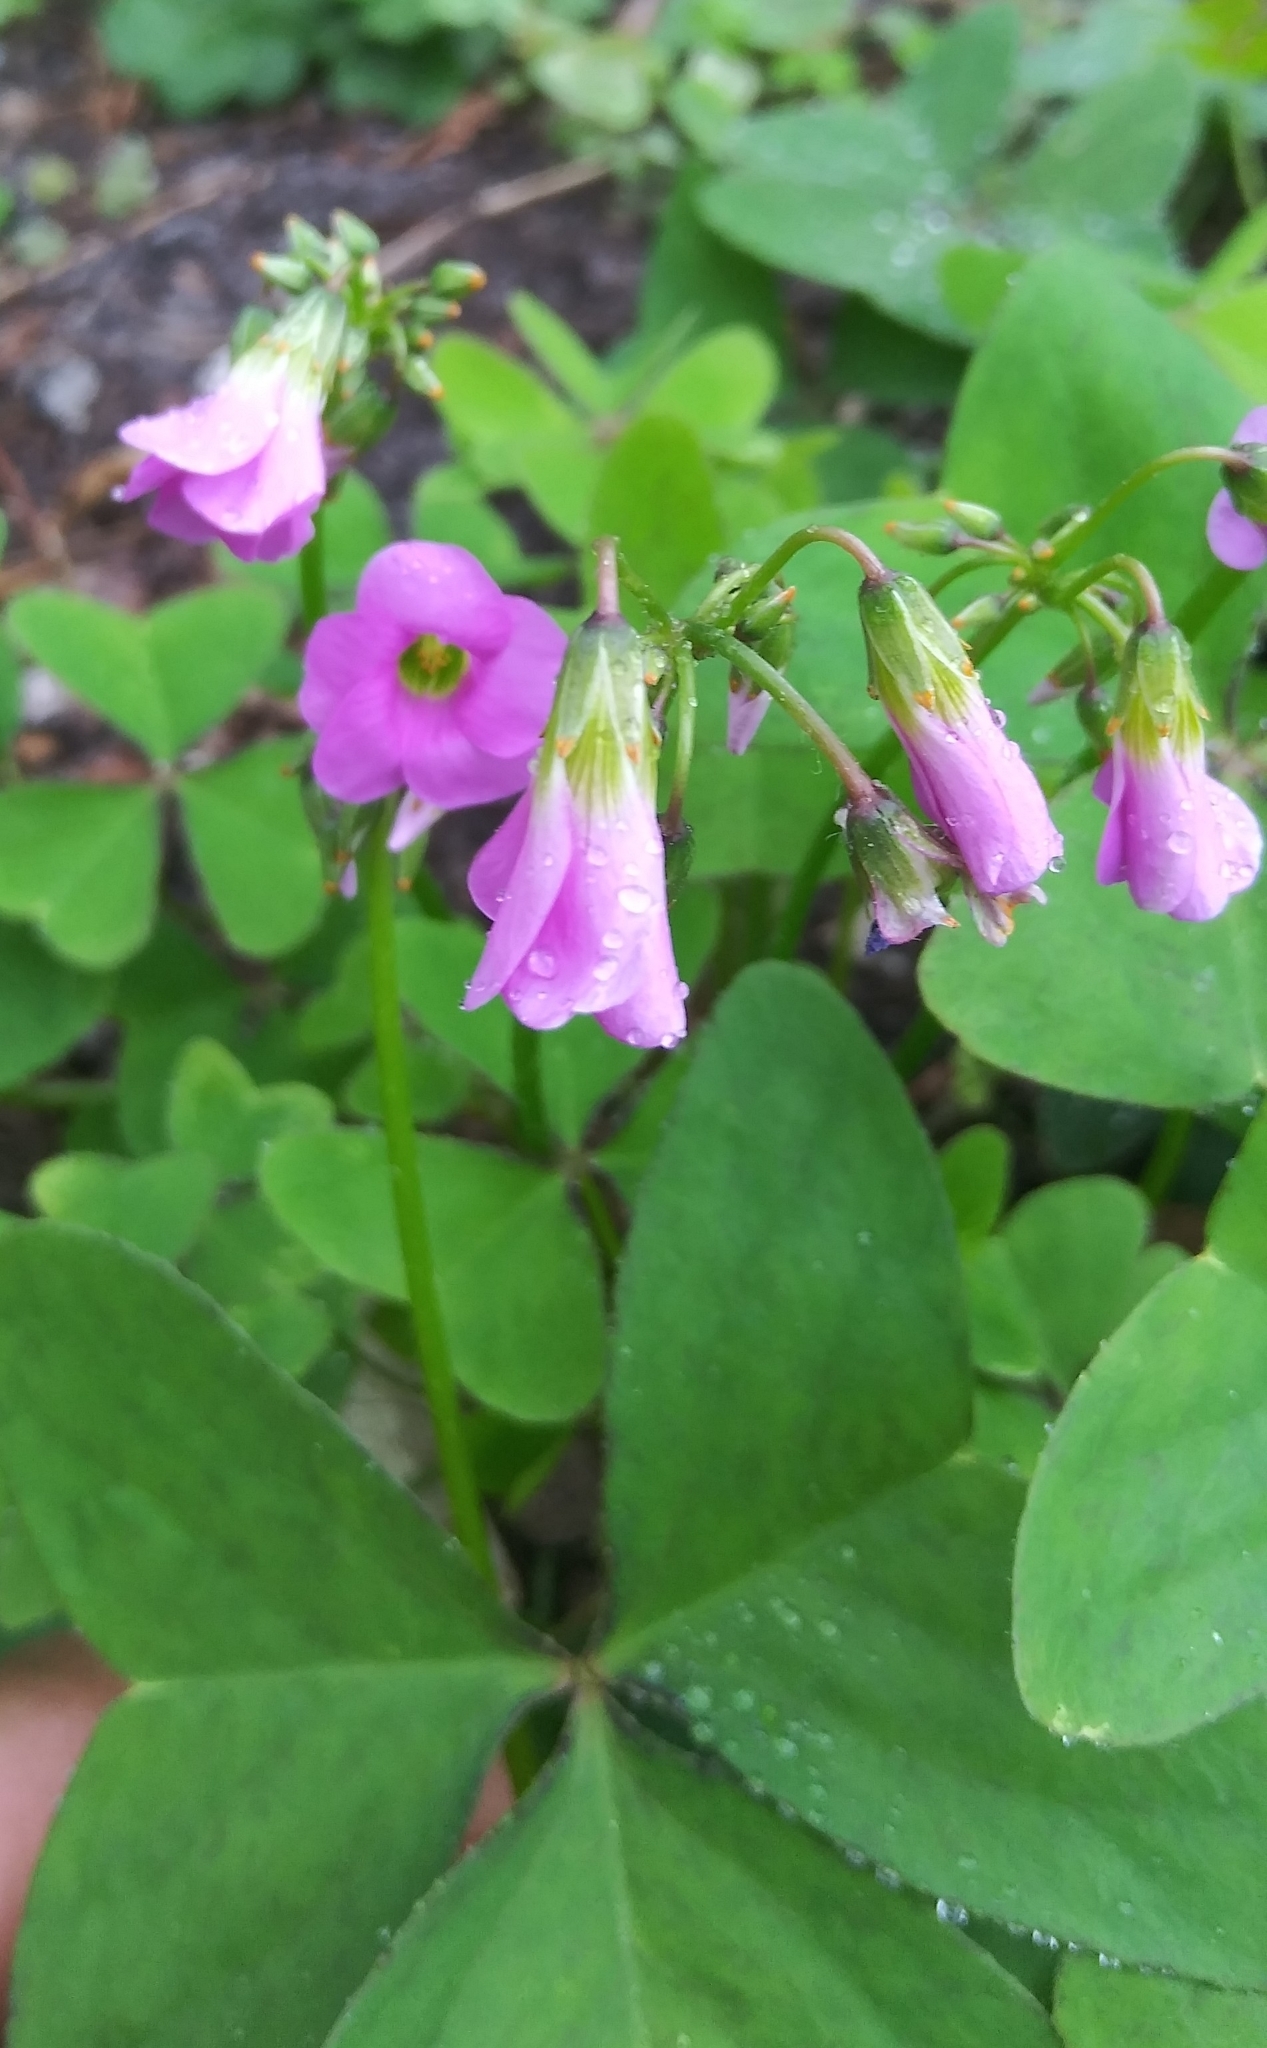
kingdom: Plantae
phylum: Tracheophyta
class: Magnoliopsida
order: Oxalidales
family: Oxalidaceae
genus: Oxalis
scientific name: Oxalis intermedia
